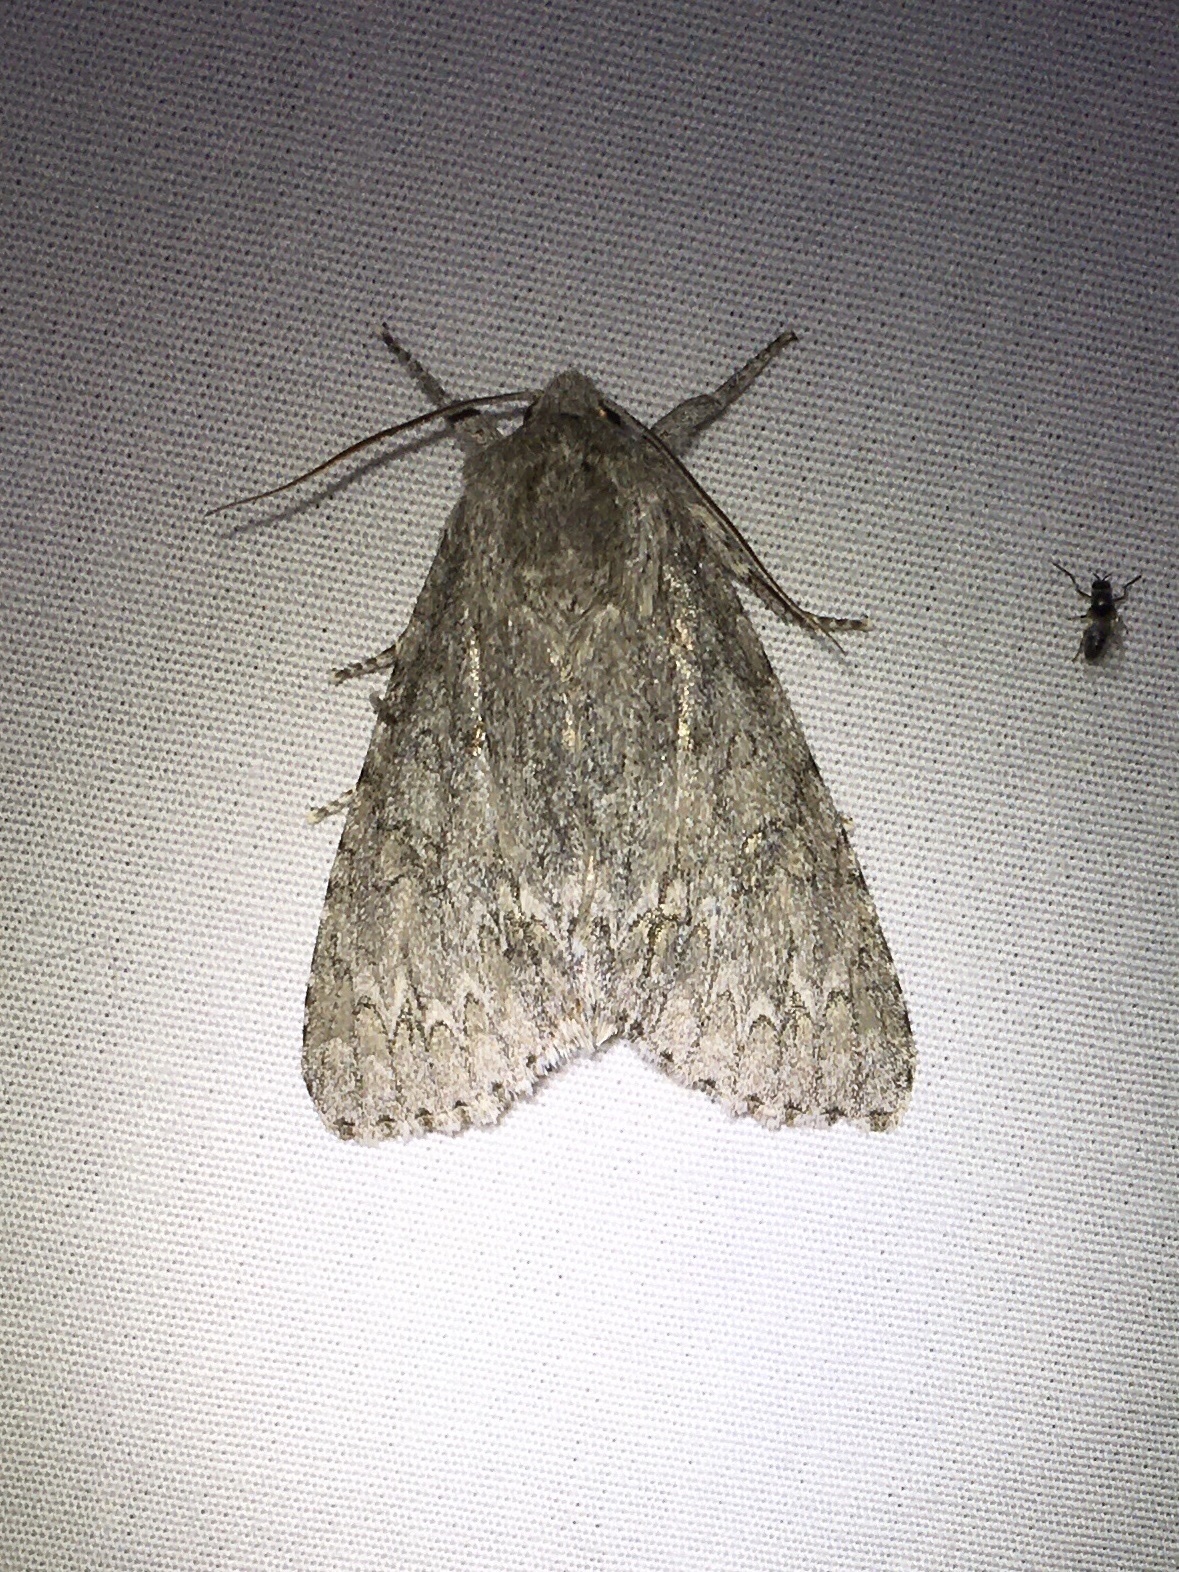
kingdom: Animalia
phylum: Arthropoda
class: Insecta
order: Lepidoptera
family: Noctuidae
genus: Acronicta
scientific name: Acronicta americana
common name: American dagger
